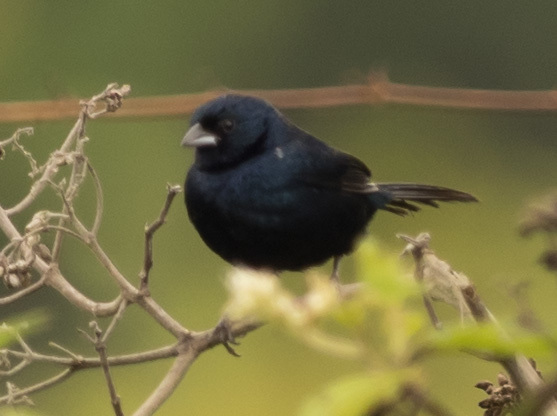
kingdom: Animalia
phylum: Chordata
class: Aves
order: Passeriformes
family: Thraupidae
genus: Volatinia
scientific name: Volatinia jacarina
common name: Blue-black grassquit
